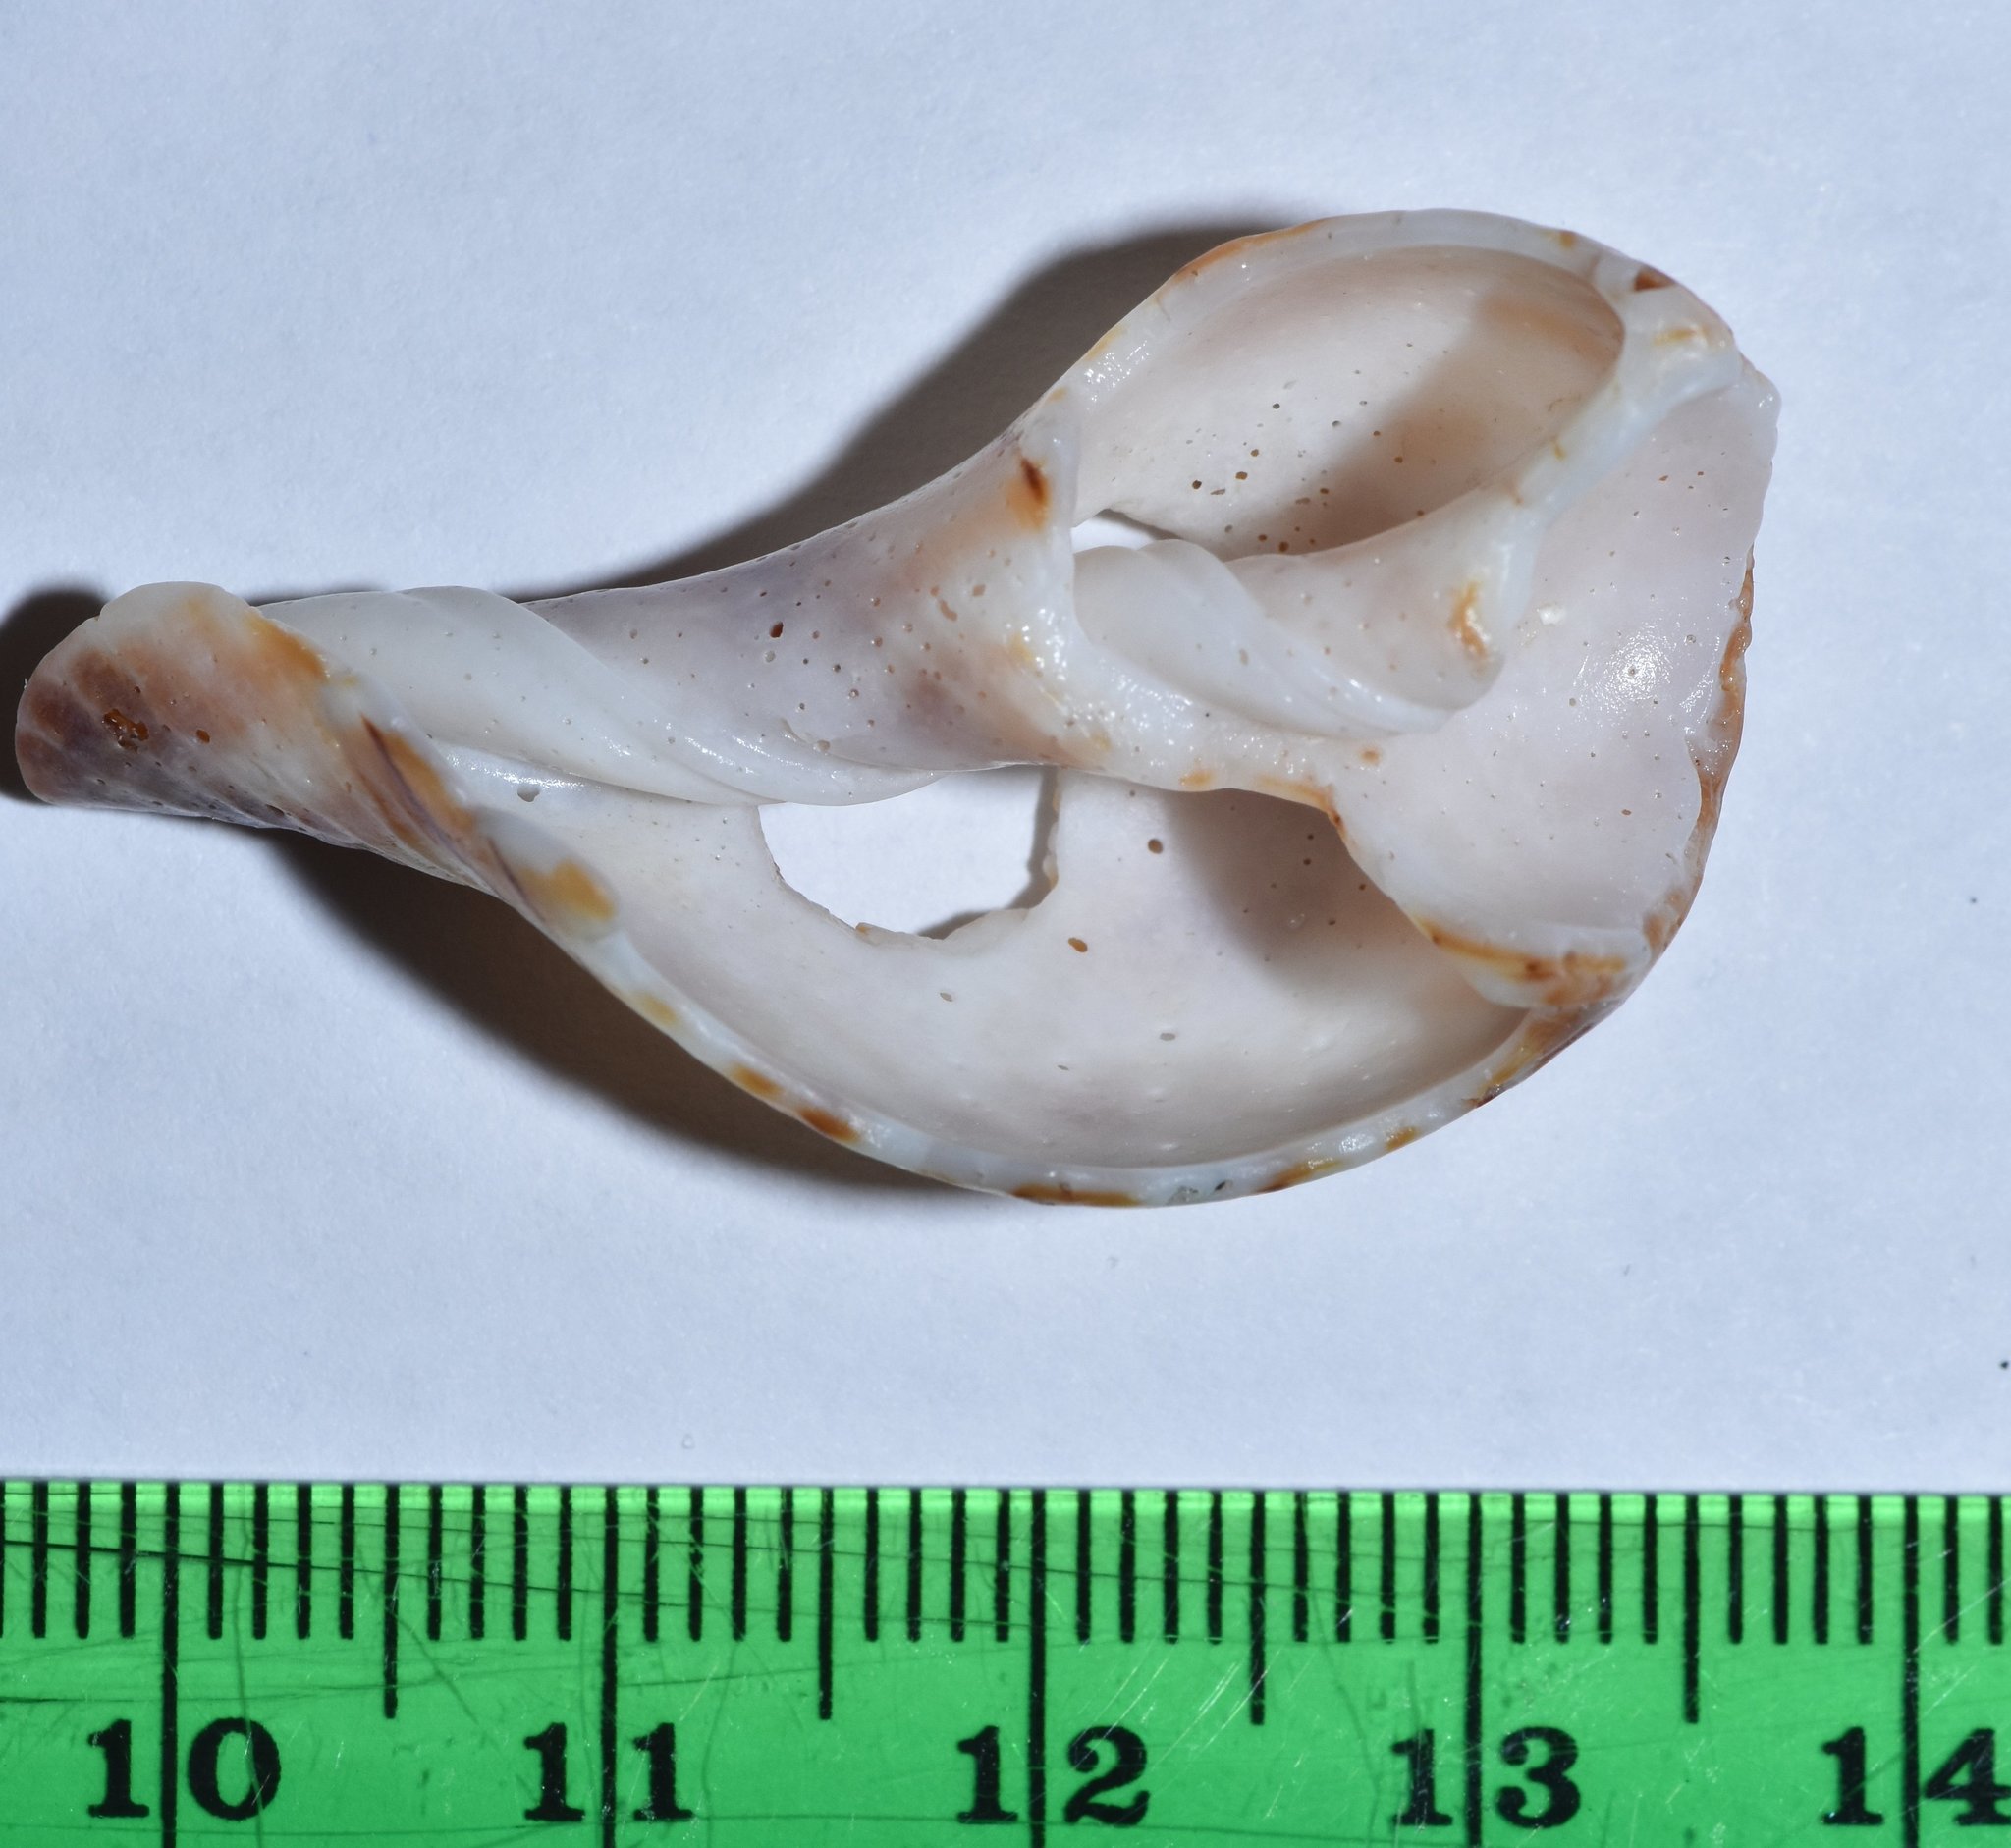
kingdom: Animalia
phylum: Mollusca
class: Gastropoda
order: Neogastropoda
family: Fasciolariidae
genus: Cinctura
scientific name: Cinctura hunteria
